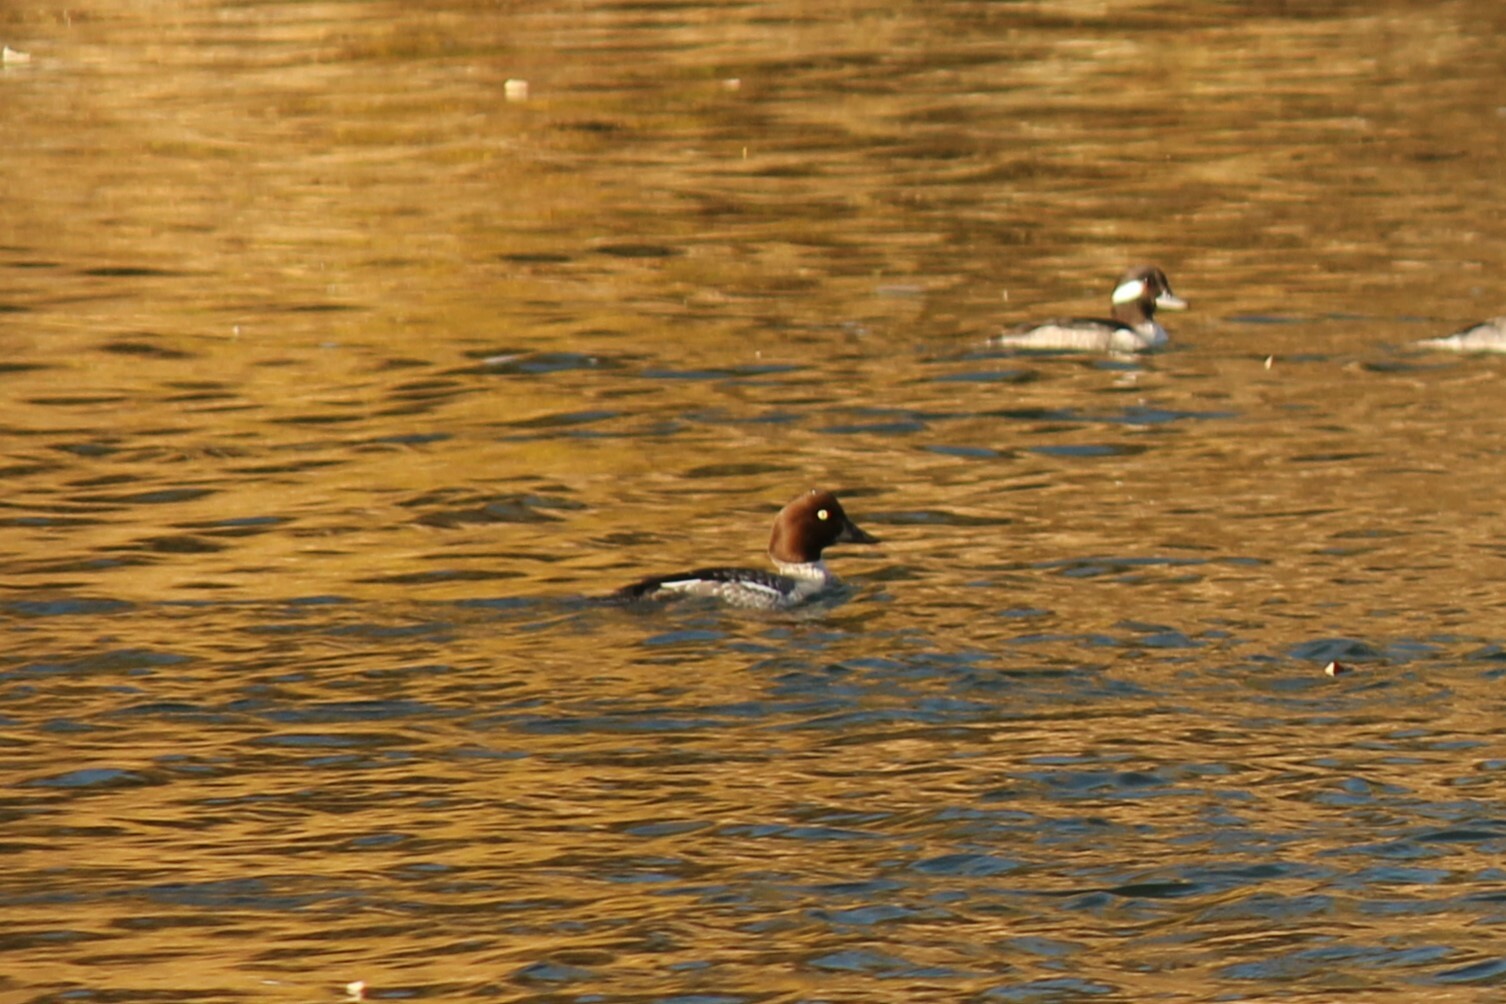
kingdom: Animalia
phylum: Chordata
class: Aves
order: Anseriformes
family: Anatidae
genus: Bucephala
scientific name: Bucephala clangula
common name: Common goldeneye
